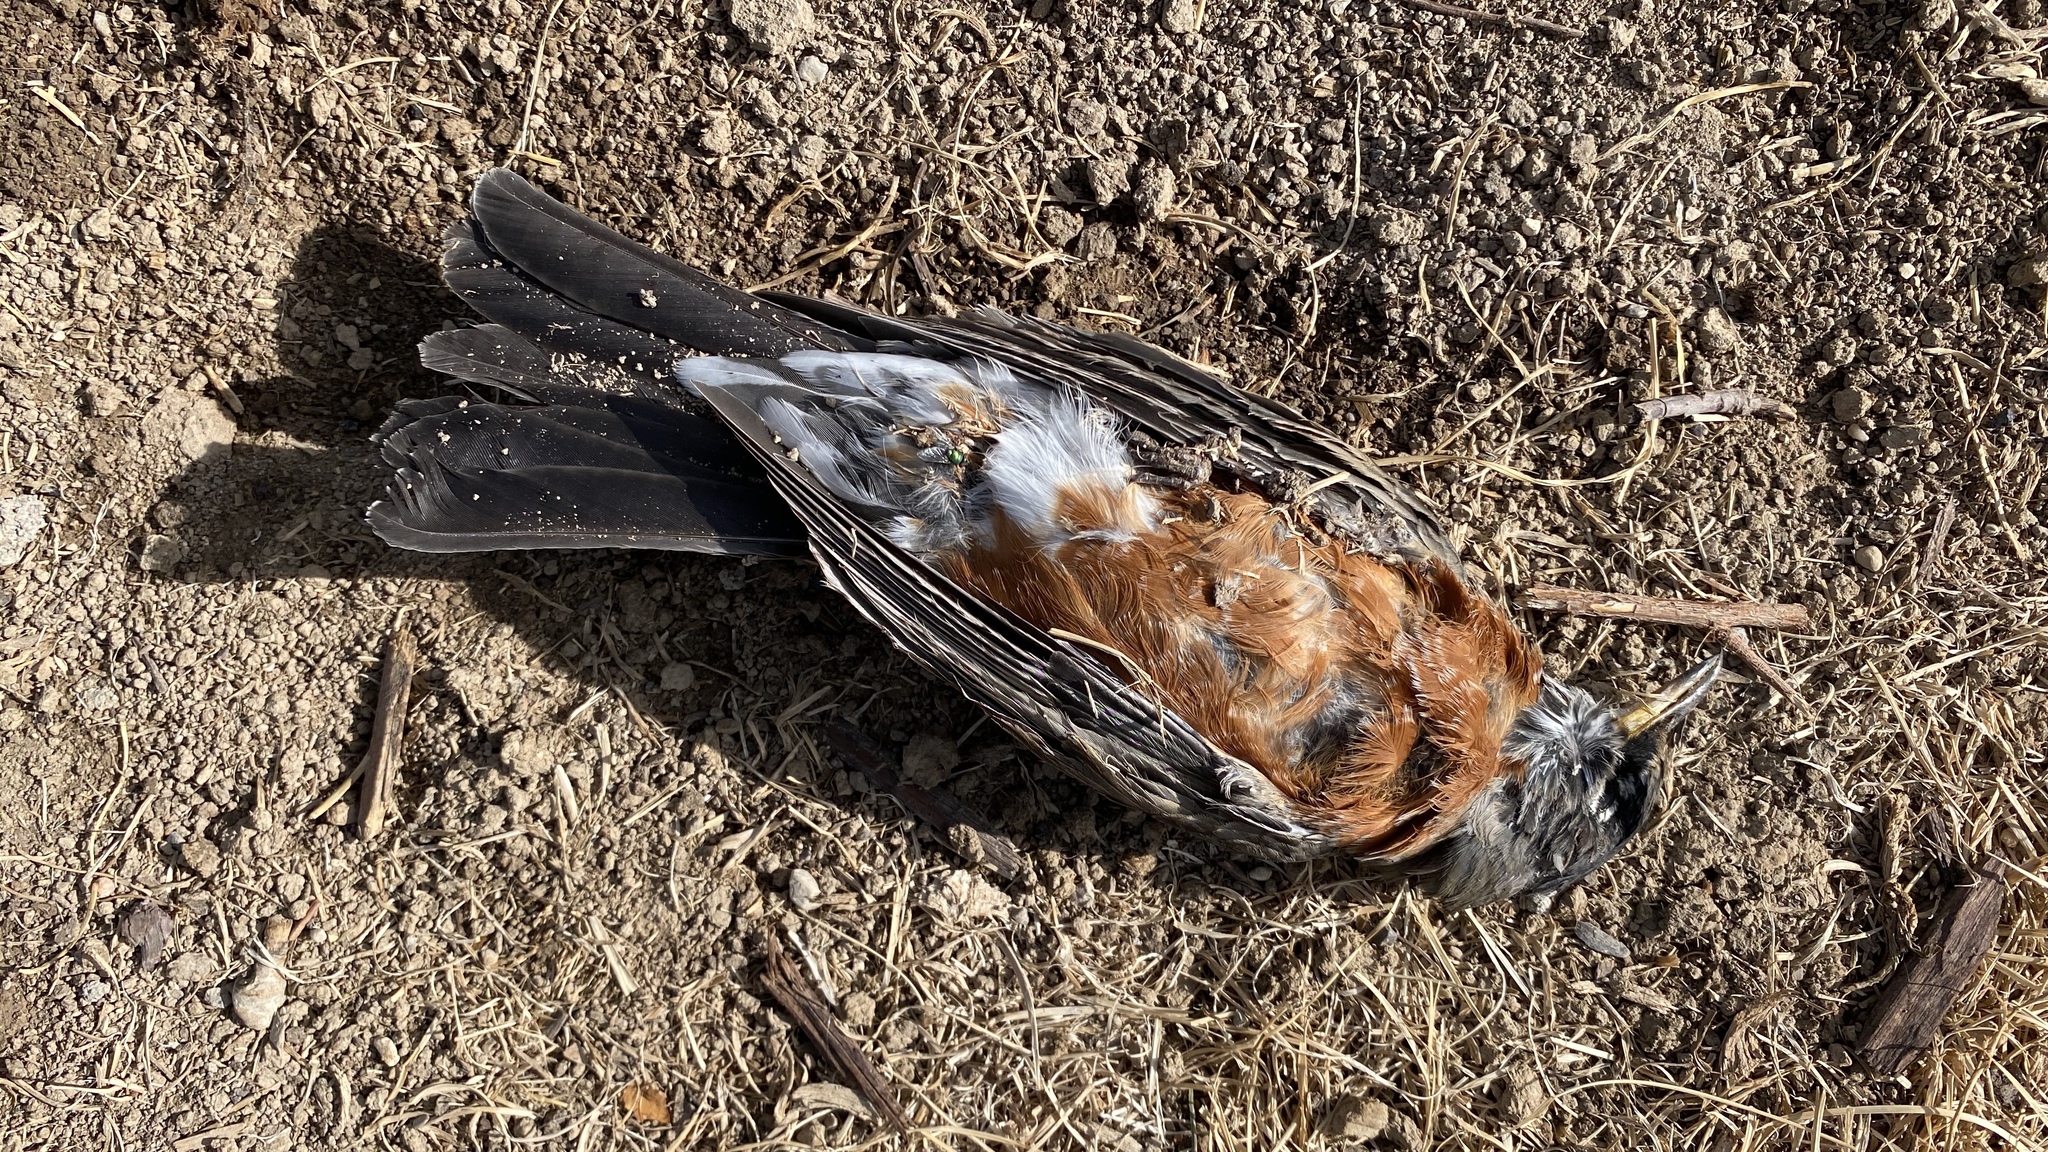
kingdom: Animalia
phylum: Chordata
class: Aves
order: Passeriformes
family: Turdidae
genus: Turdus
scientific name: Turdus migratorius
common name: American robin
